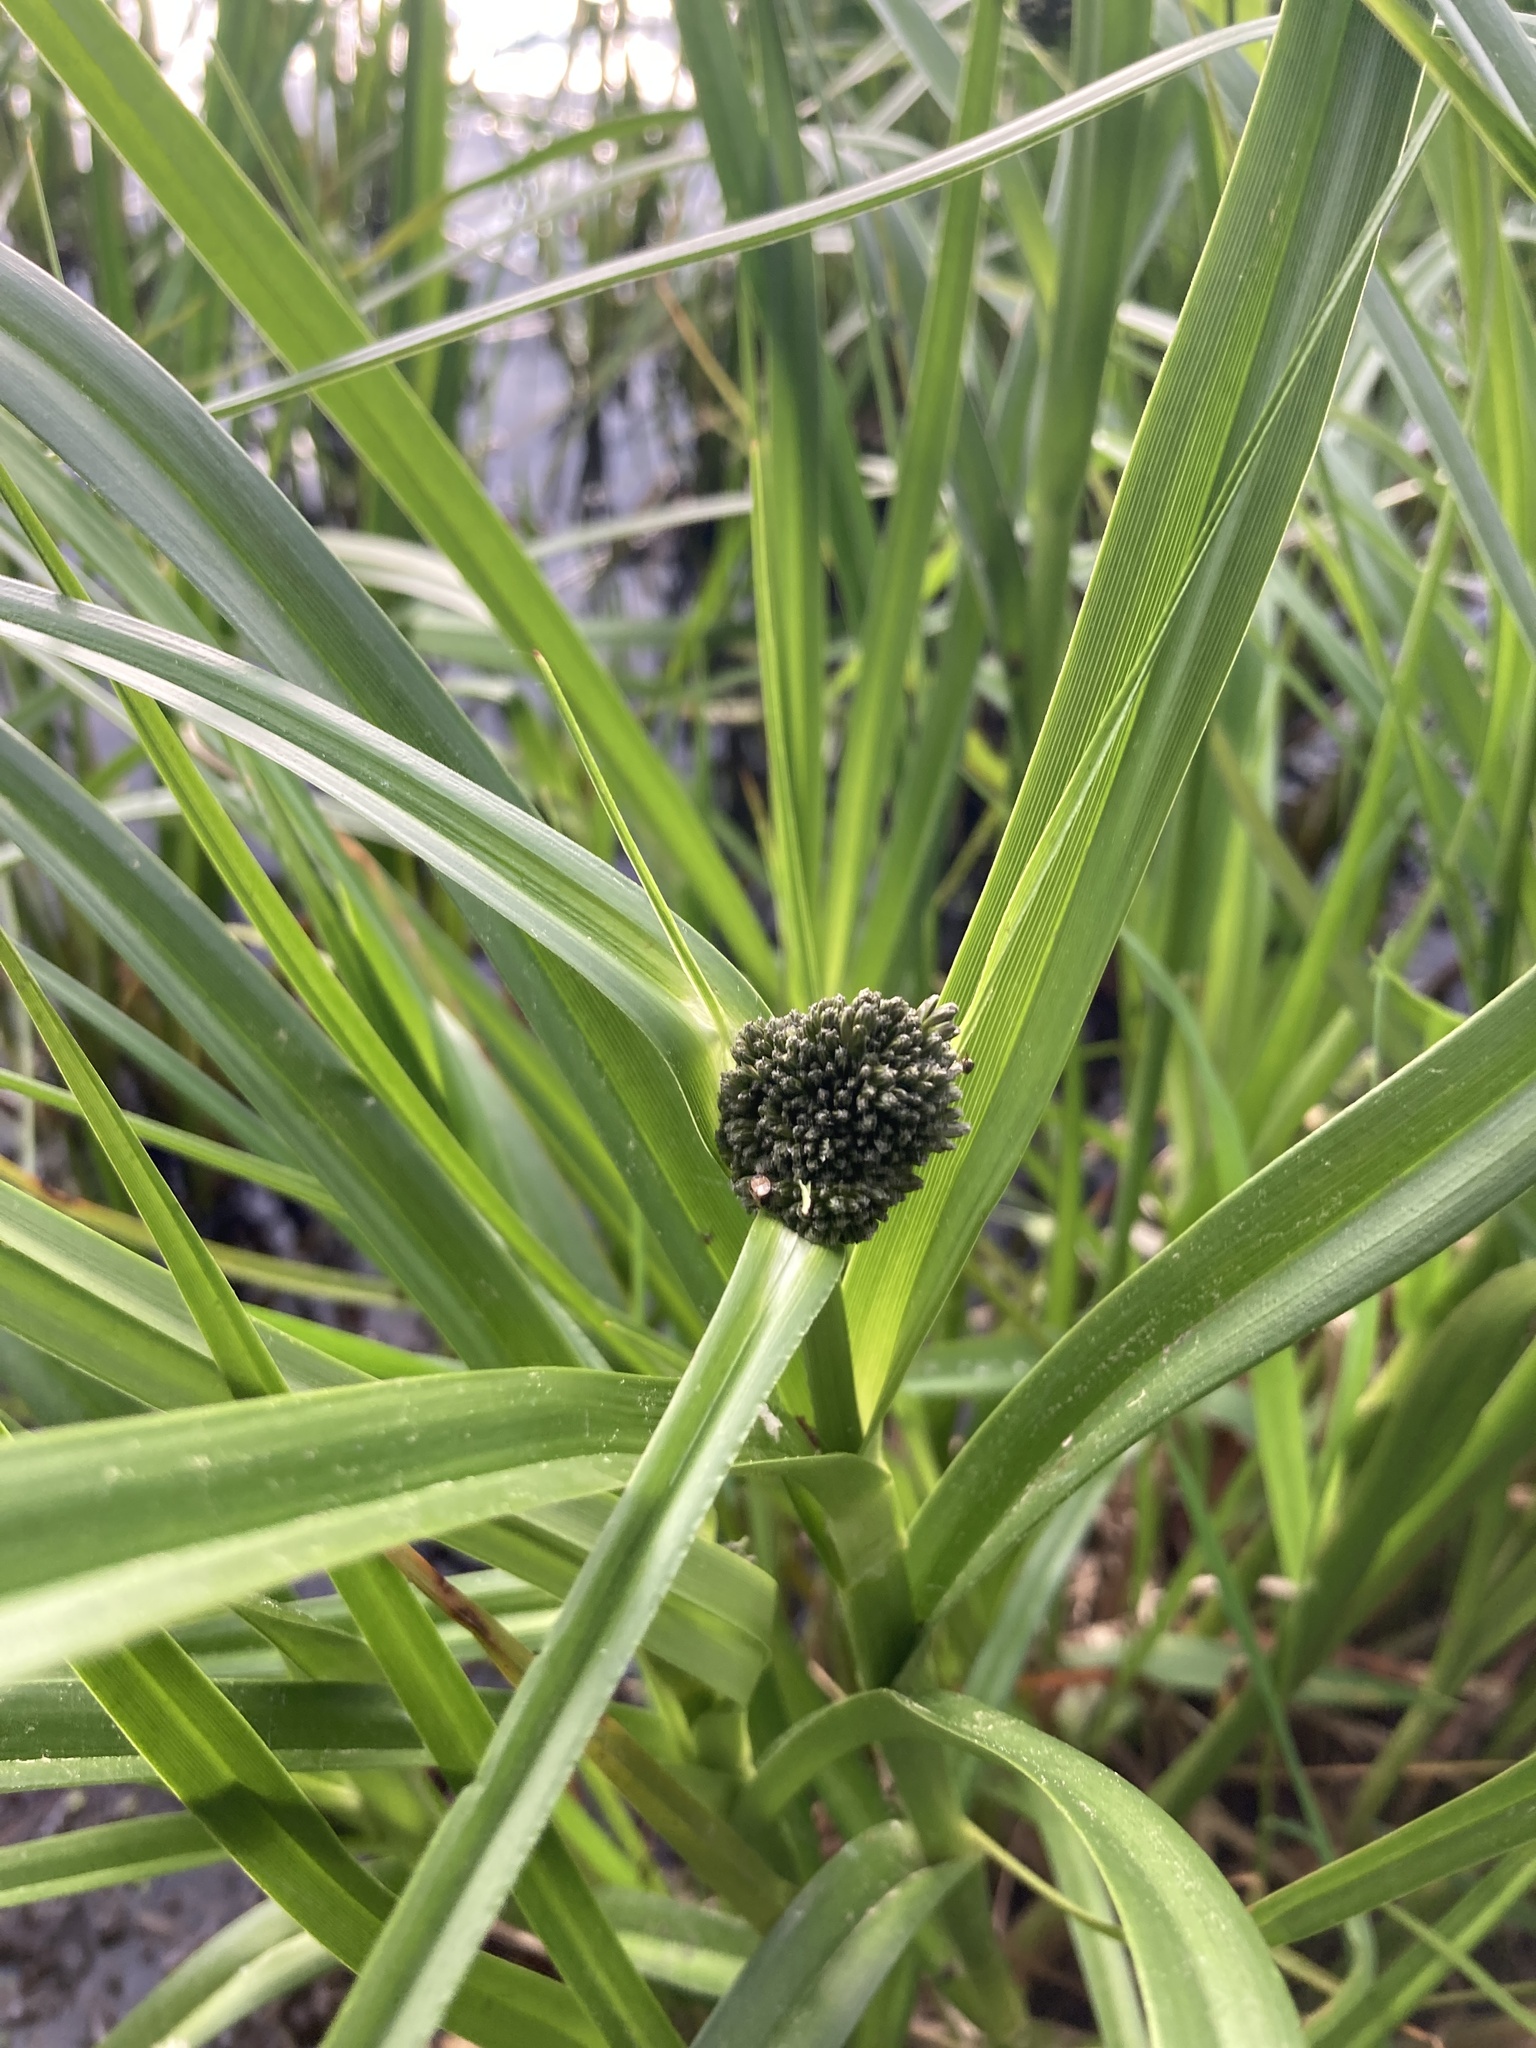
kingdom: Plantae
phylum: Tracheophyta
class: Liliopsida
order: Poales
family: Cyperaceae
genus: Scirpus
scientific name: Scirpus sylvaticus
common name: Wood club-rush
